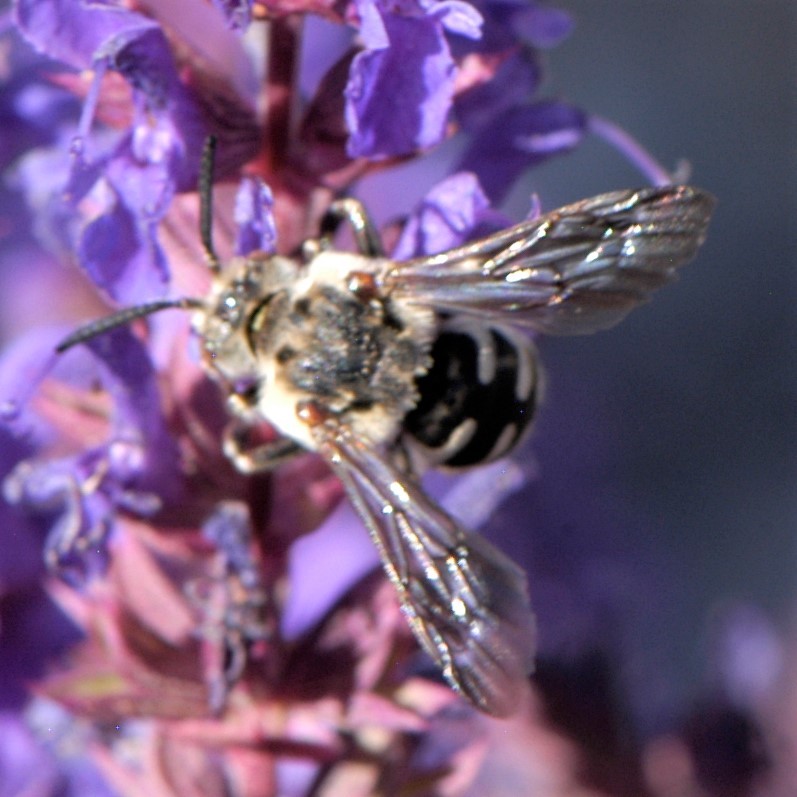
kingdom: Animalia
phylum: Arthropoda
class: Insecta
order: Hymenoptera
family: Apidae
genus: Brachymelecta
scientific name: Brachymelecta californica
